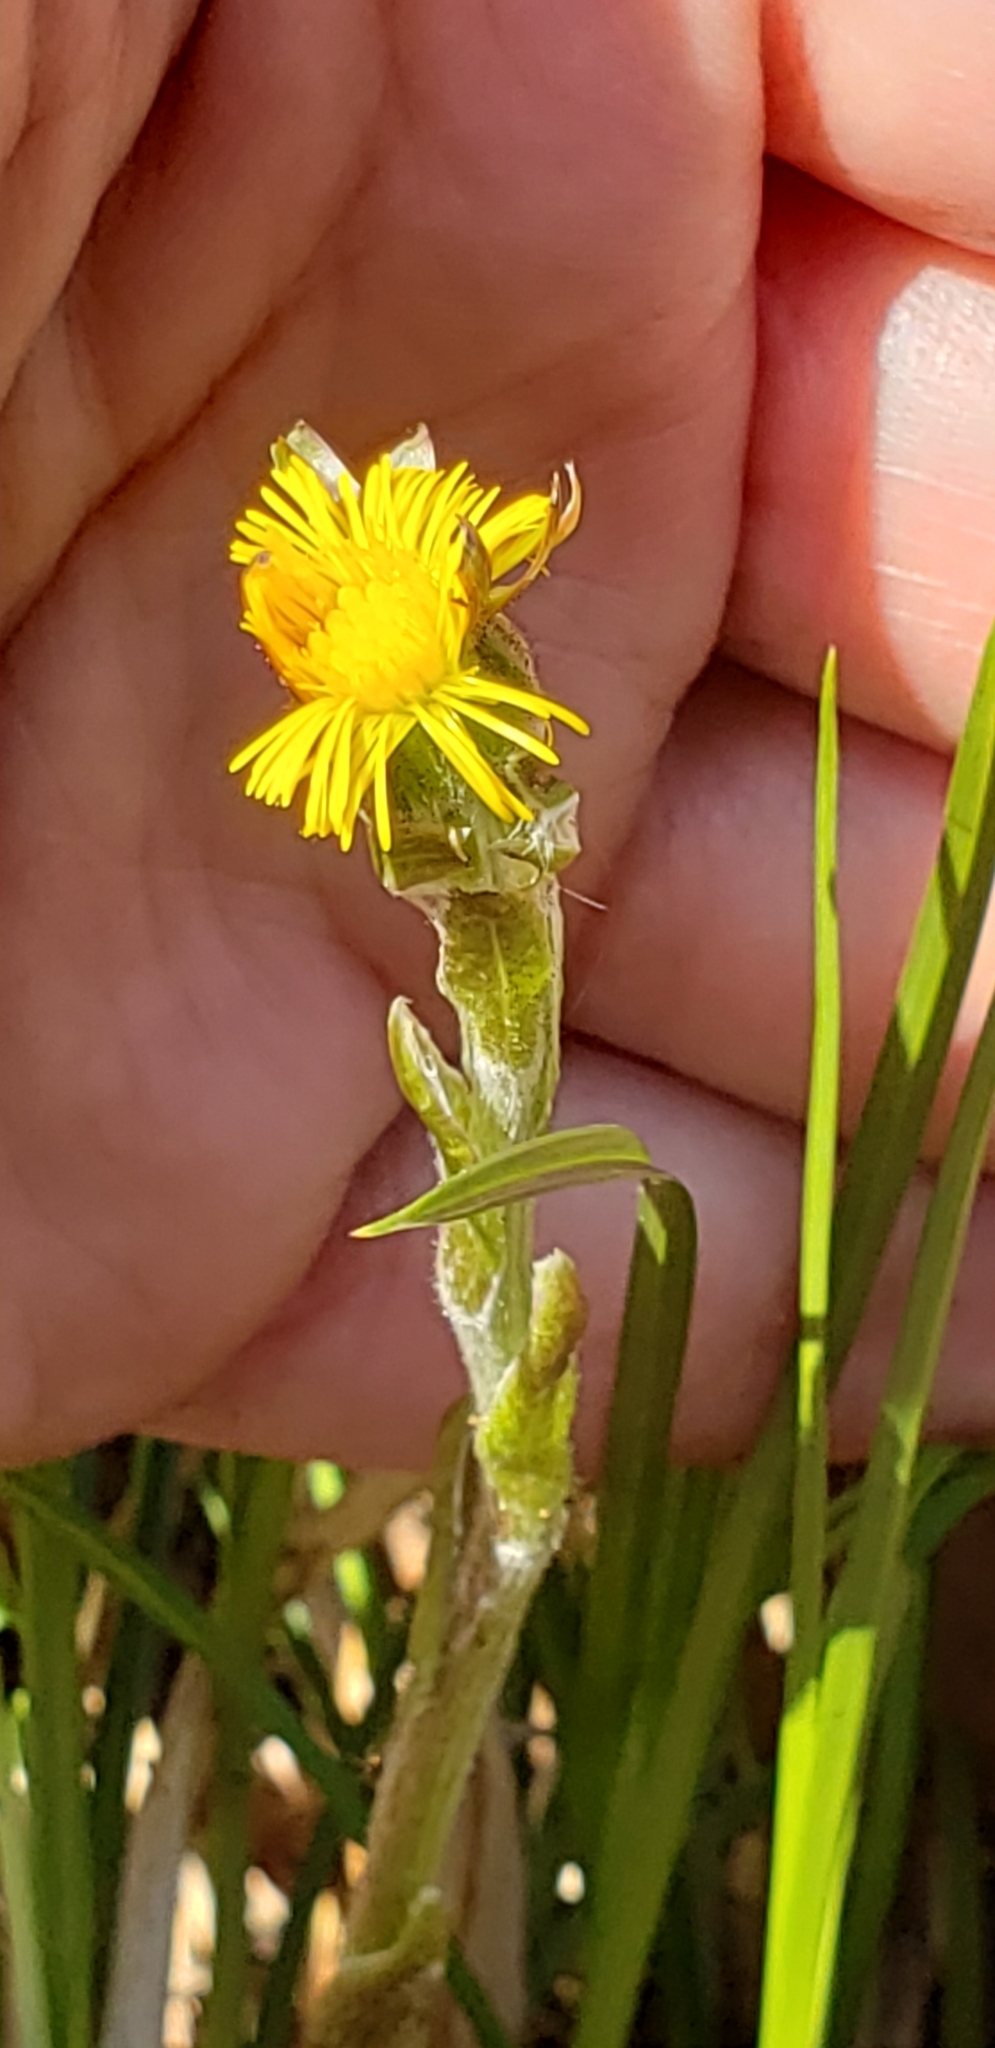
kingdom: Plantae
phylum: Tracheophyta
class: Magnoliopsida
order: Asterales
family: Asteraceae
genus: Tussilago
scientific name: Tussilago farfara
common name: Coltsfoot
